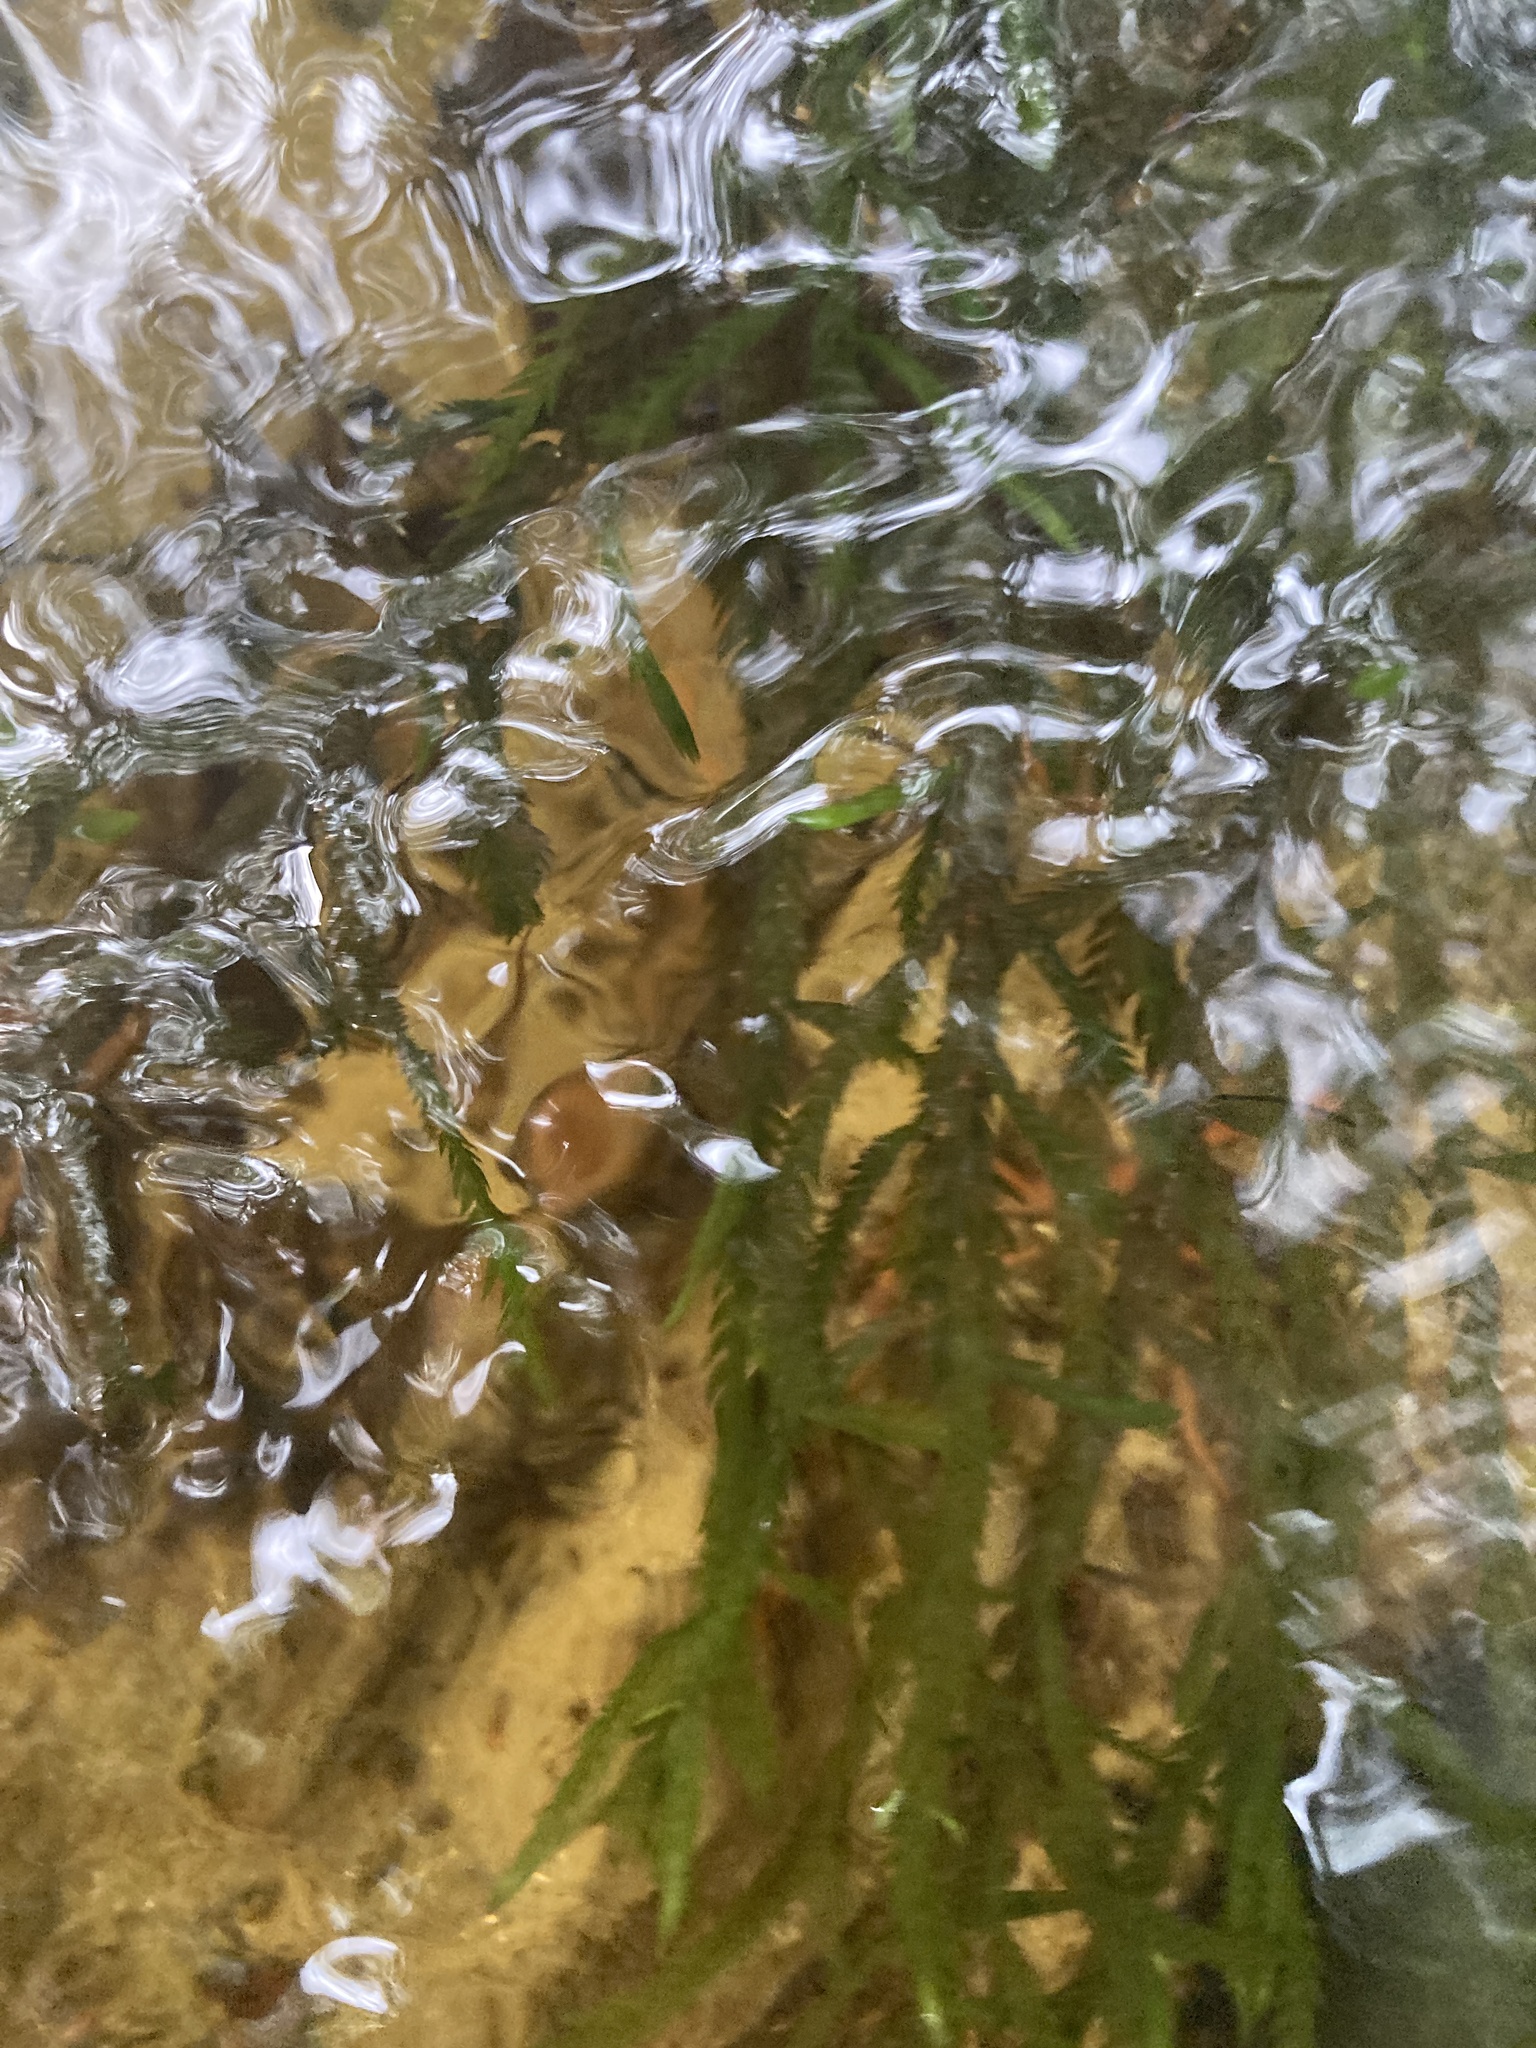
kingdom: Plantae
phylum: Bryophyta
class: Bryopsida
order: Hypnales
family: Fontinalaceae
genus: Fontinalis
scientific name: Fontinalis antipyretica
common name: Greater water-moss
